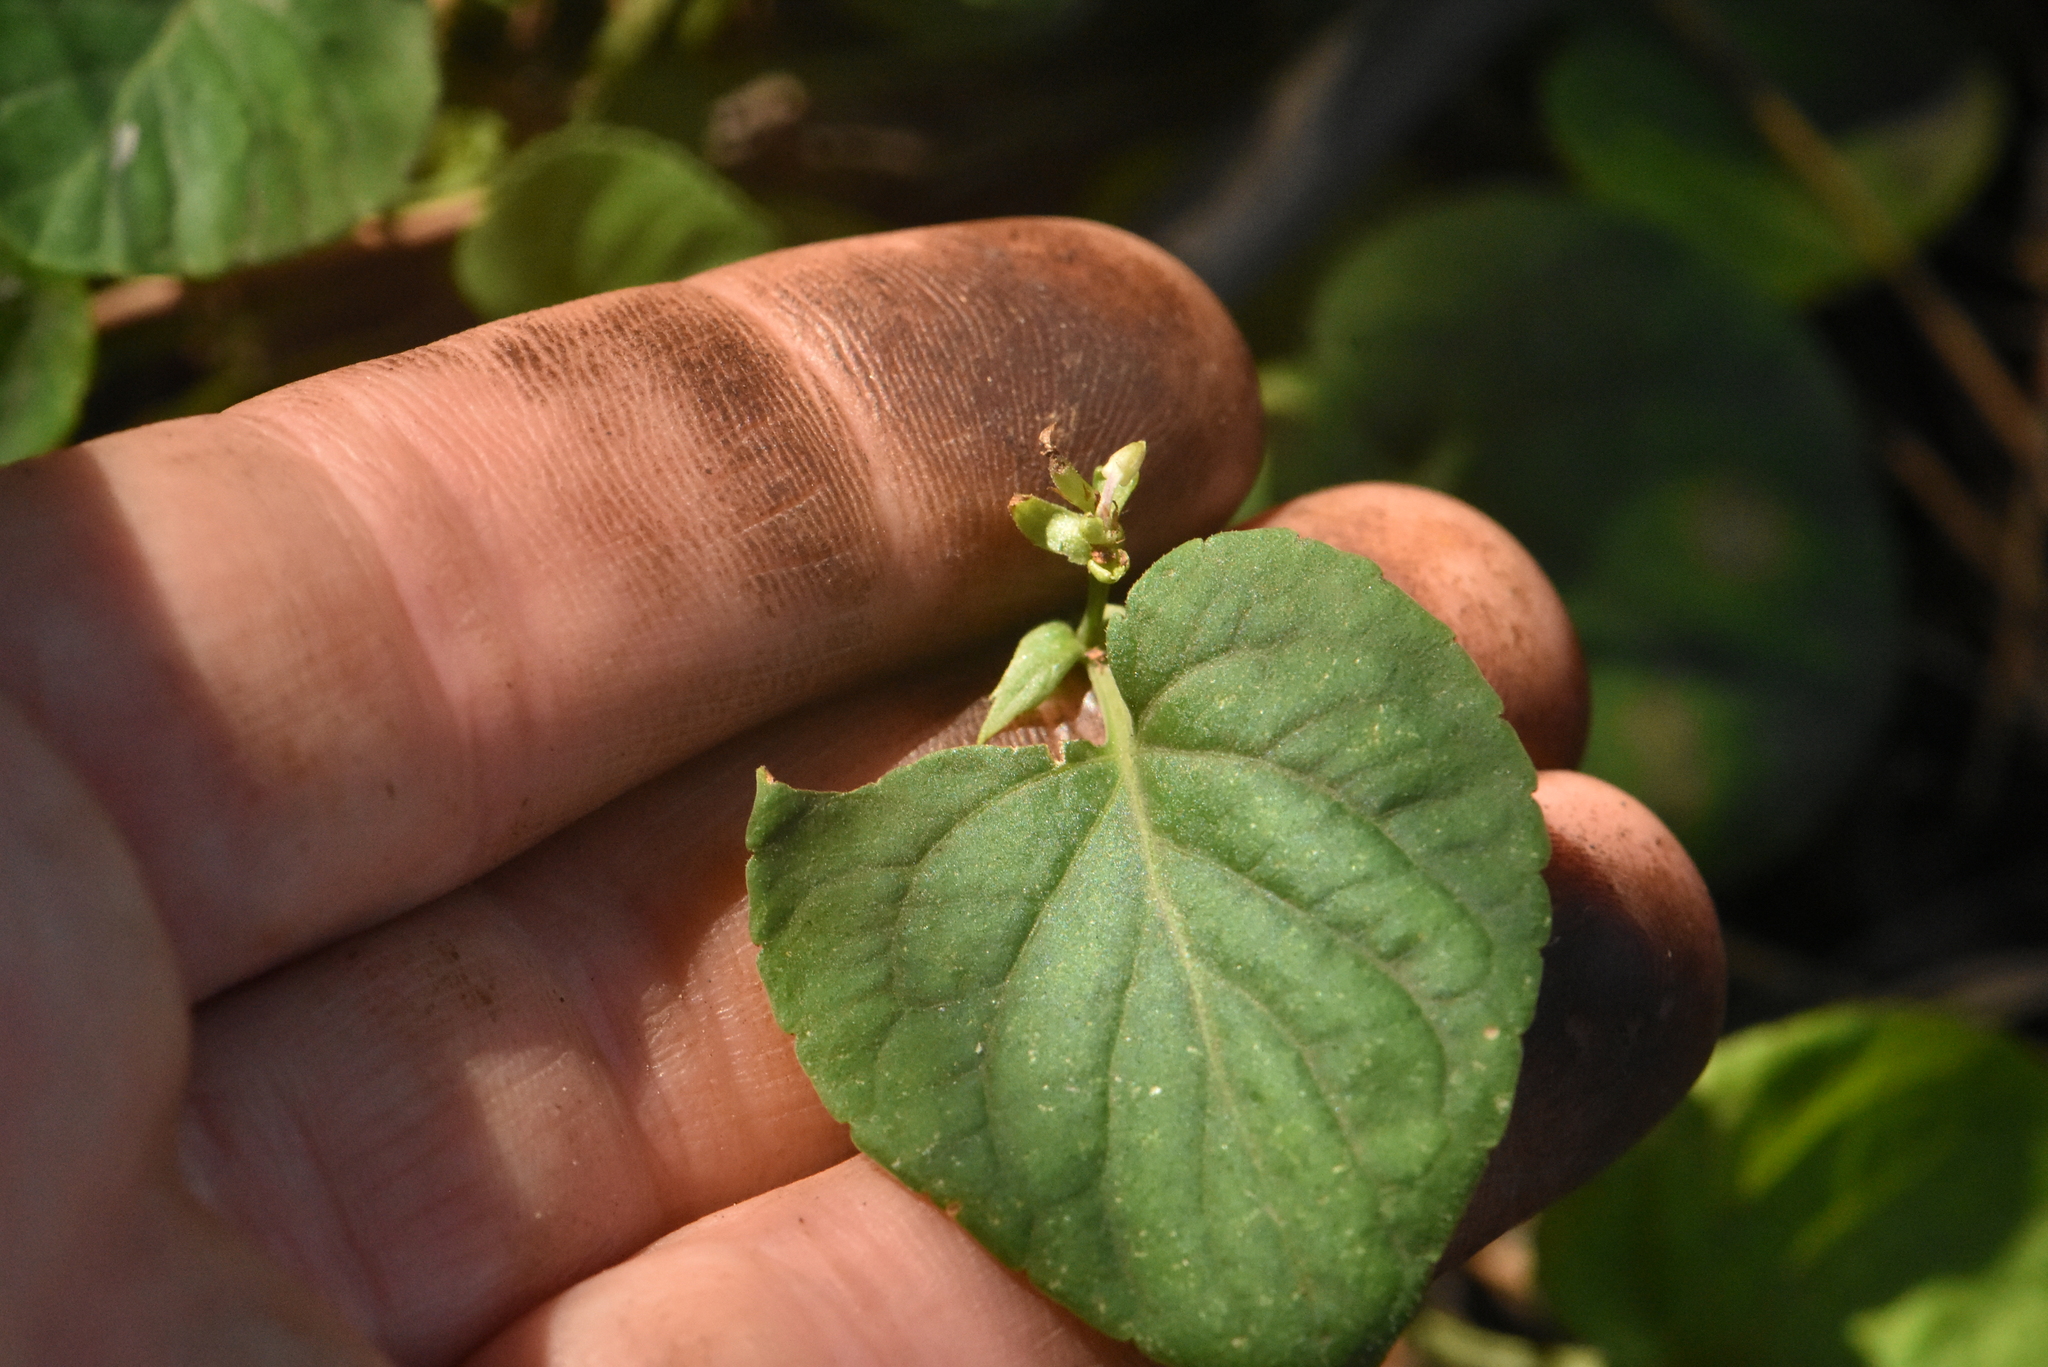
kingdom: Plantae
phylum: Tracheophyta
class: Magnoliopsida
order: Malpighiales
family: Violaceae
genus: Viola
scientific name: Viola mirabilis
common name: Wonder violet
